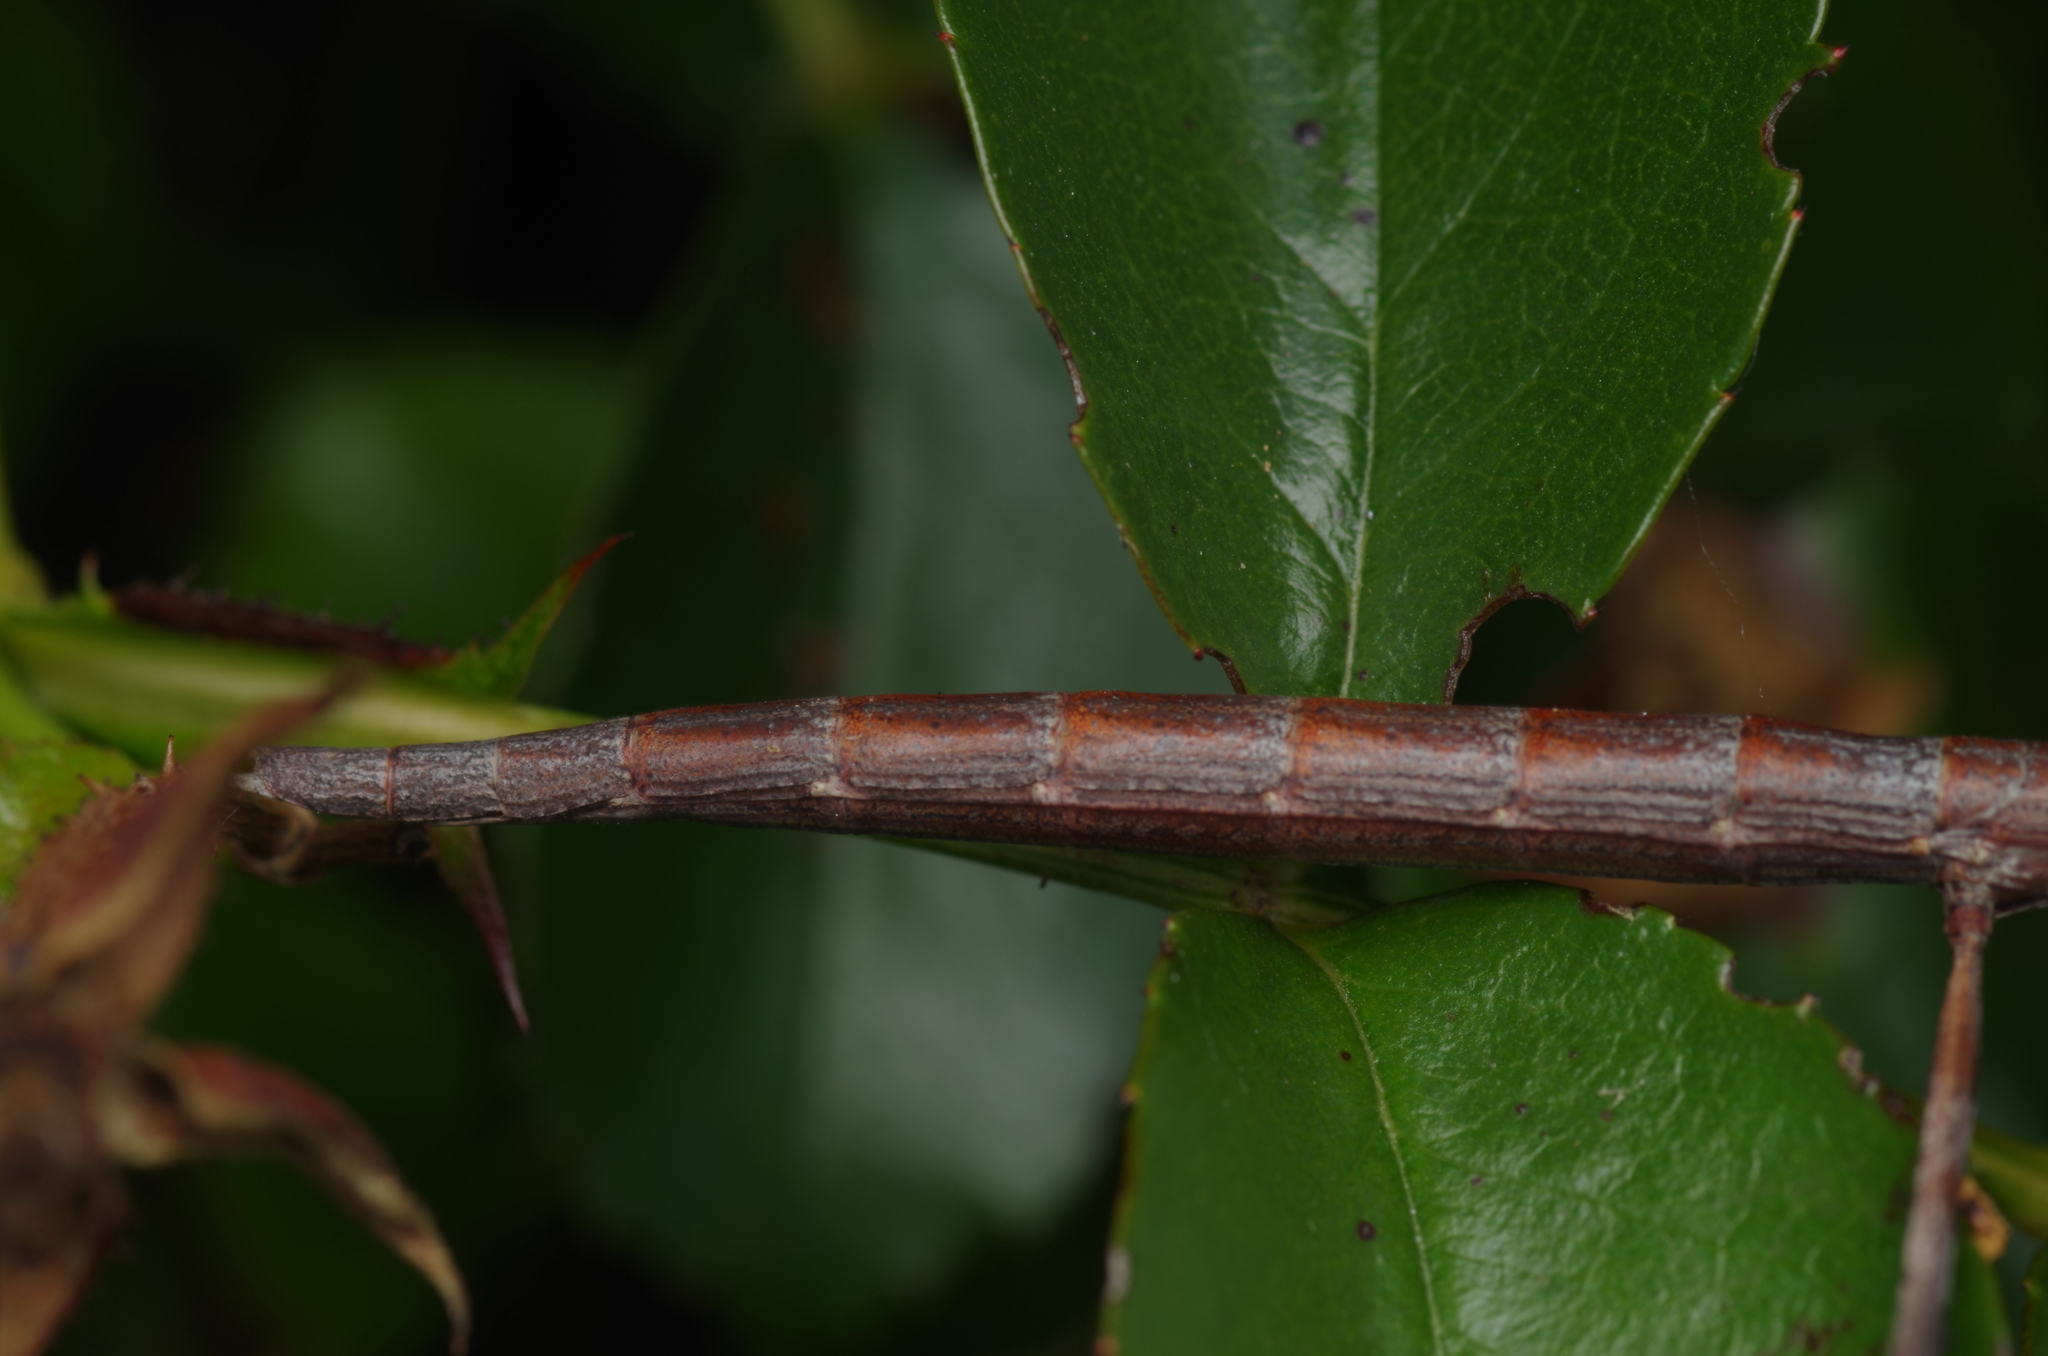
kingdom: Animalia
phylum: Arthropoda
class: Insecta
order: Phasmida
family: Bacillidae
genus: Clonopsis
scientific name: Clonopsis gallica
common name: French stick insect
